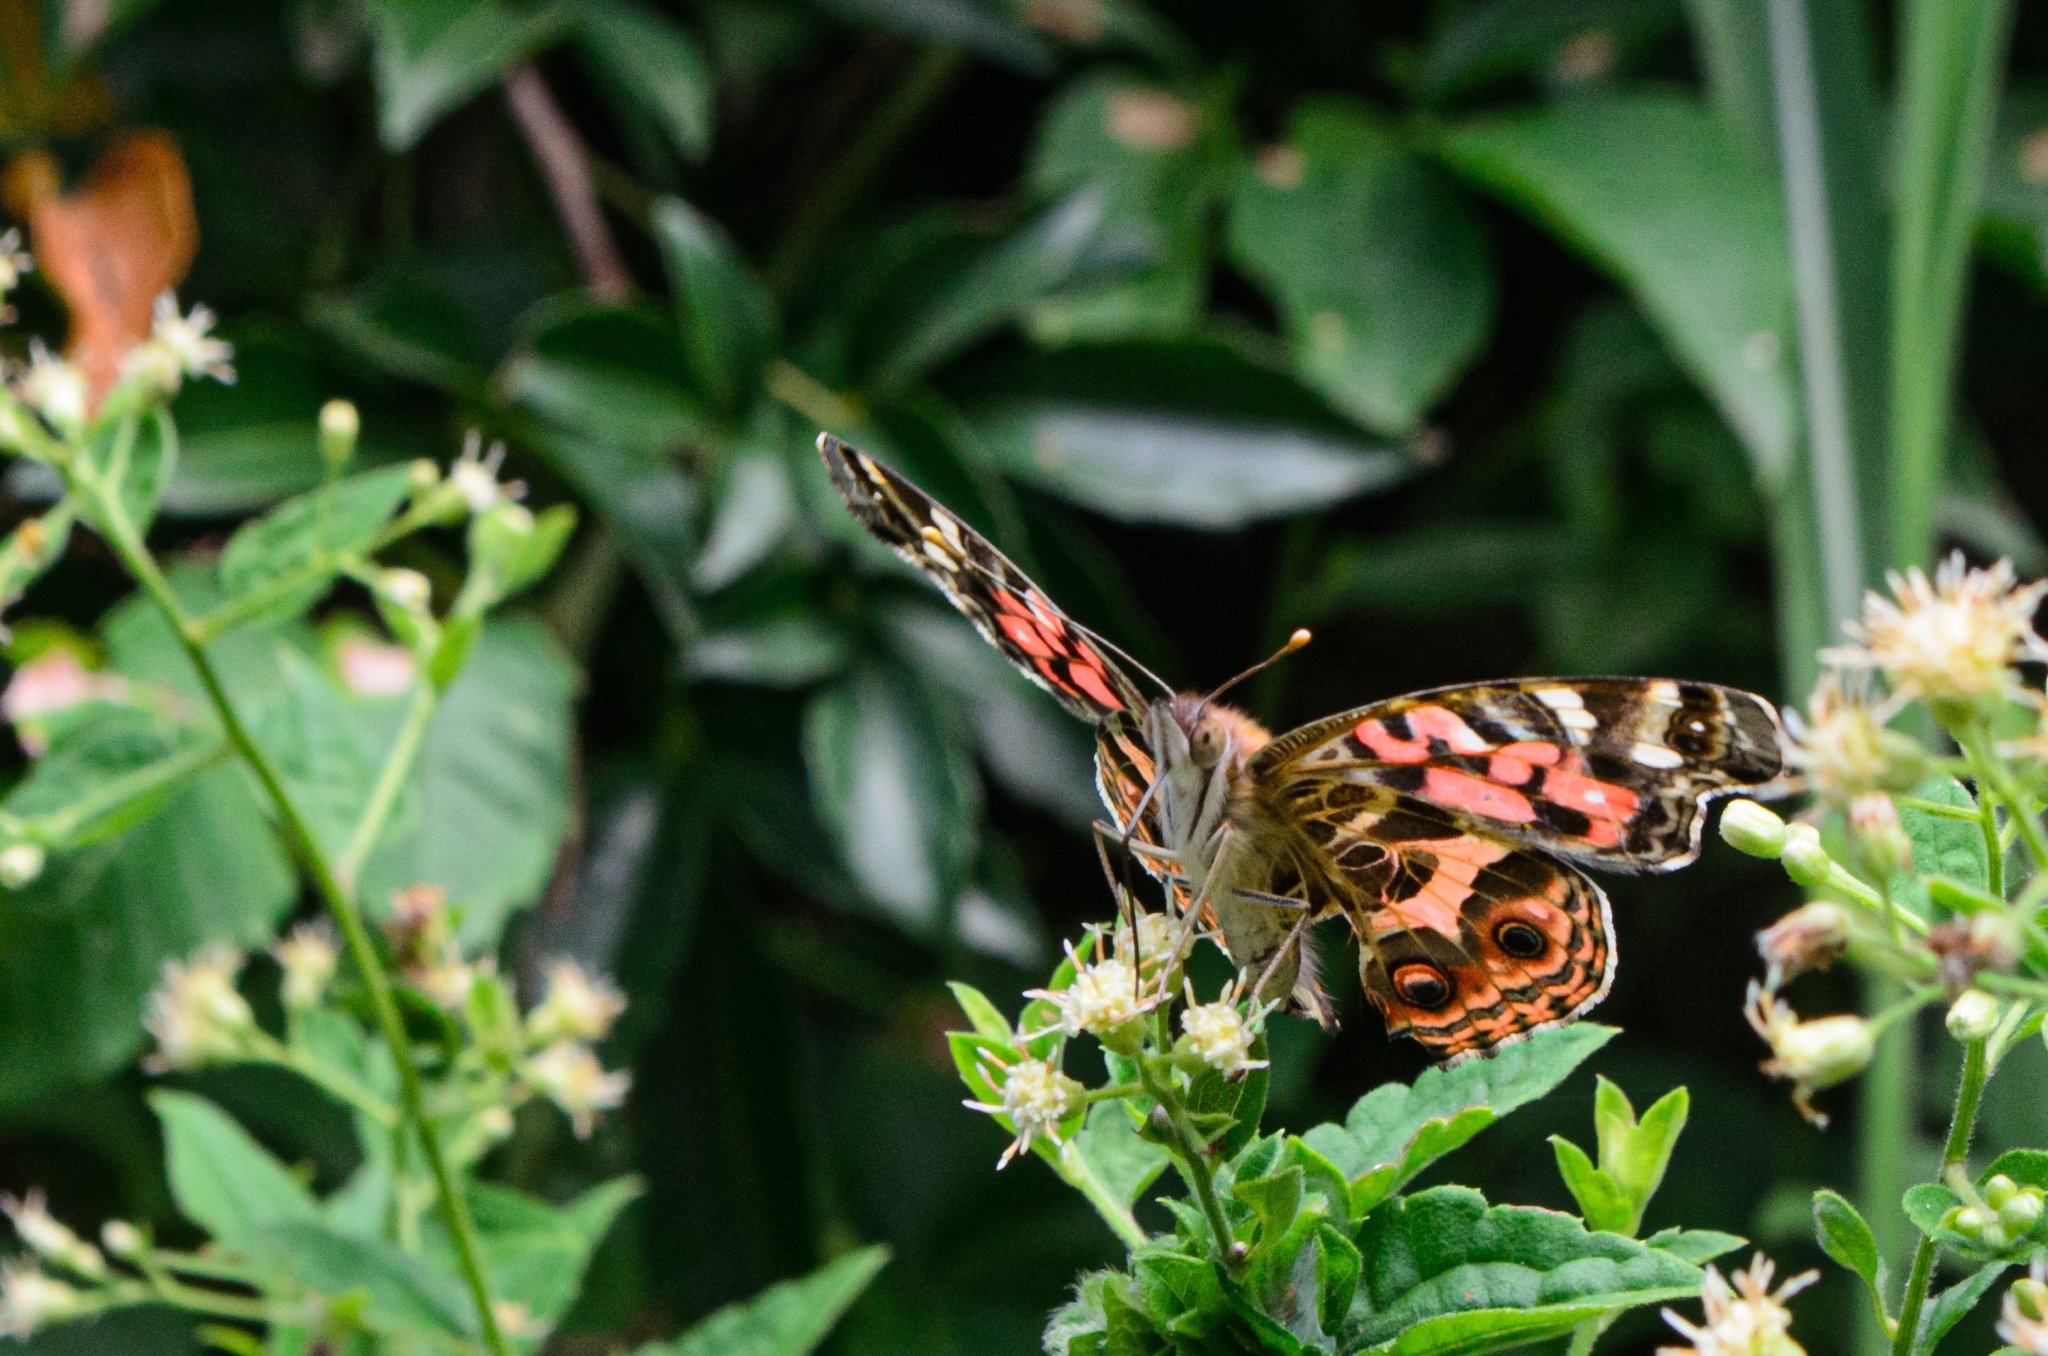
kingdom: Animalia
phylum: Arthropoda
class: Insecta
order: Lepidoptera
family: Nymphalidae
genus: Vanessa
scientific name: Vanessa braziliensis
